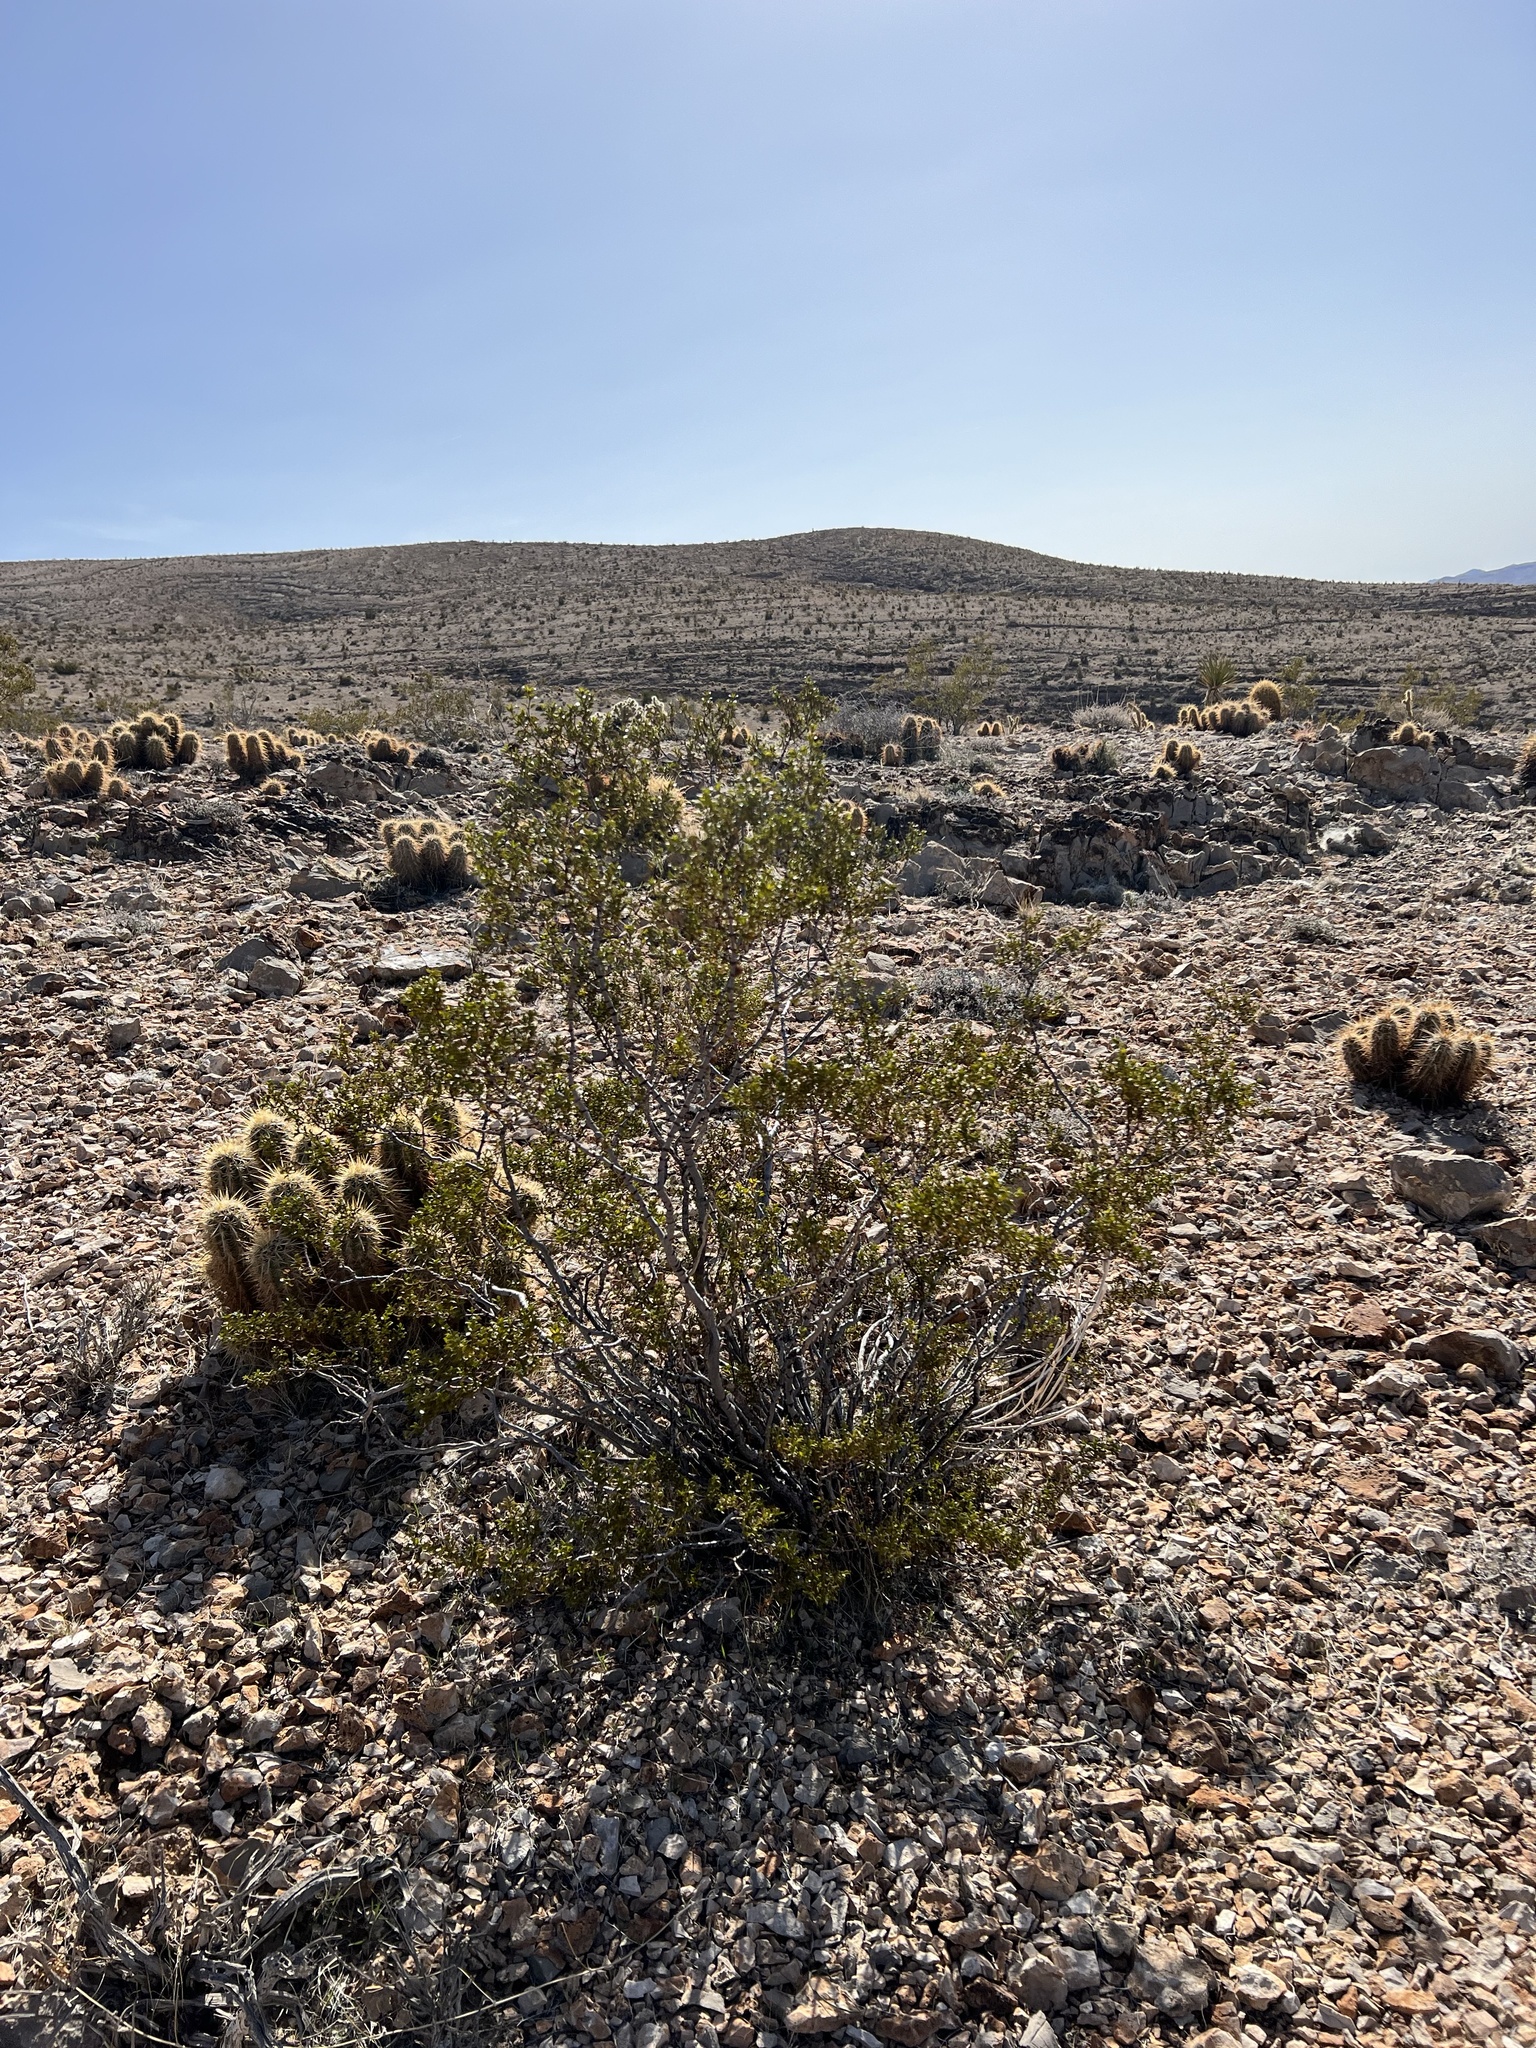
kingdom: Plantae
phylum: Tracheophyta
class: Magnoliopsida
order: Zygophyllales
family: Zygophyllaceae
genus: Larrea
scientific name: Larrea tridentata
